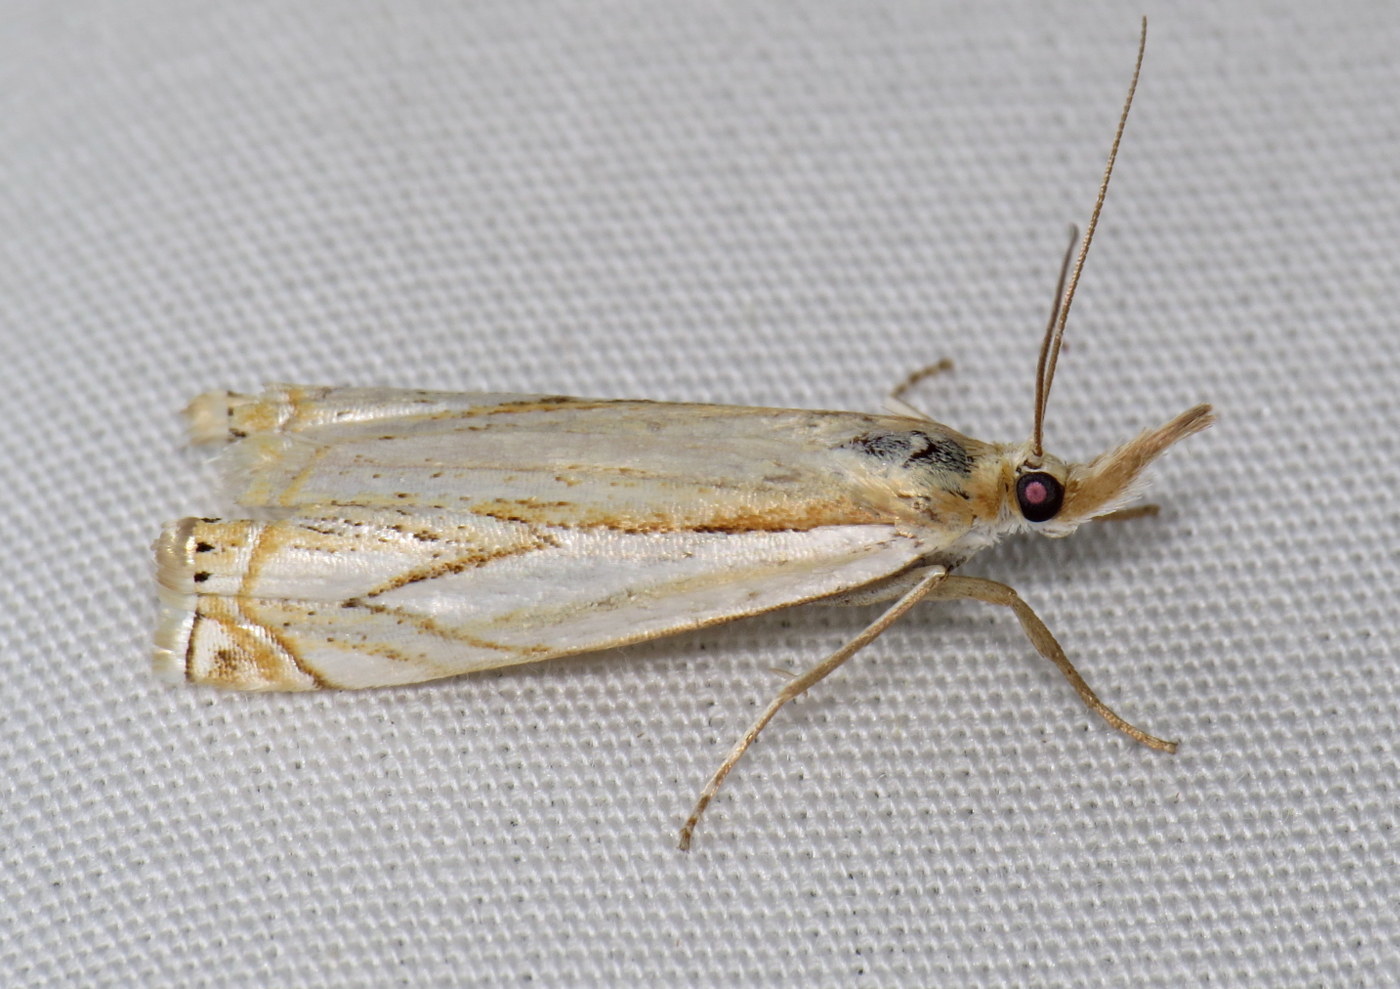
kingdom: Animalia
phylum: Arthropoda
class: Insecta
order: Lepidoptera
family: Crambidae
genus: Crambus
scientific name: Crambus saltuellus
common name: Pasture grass-veneer
